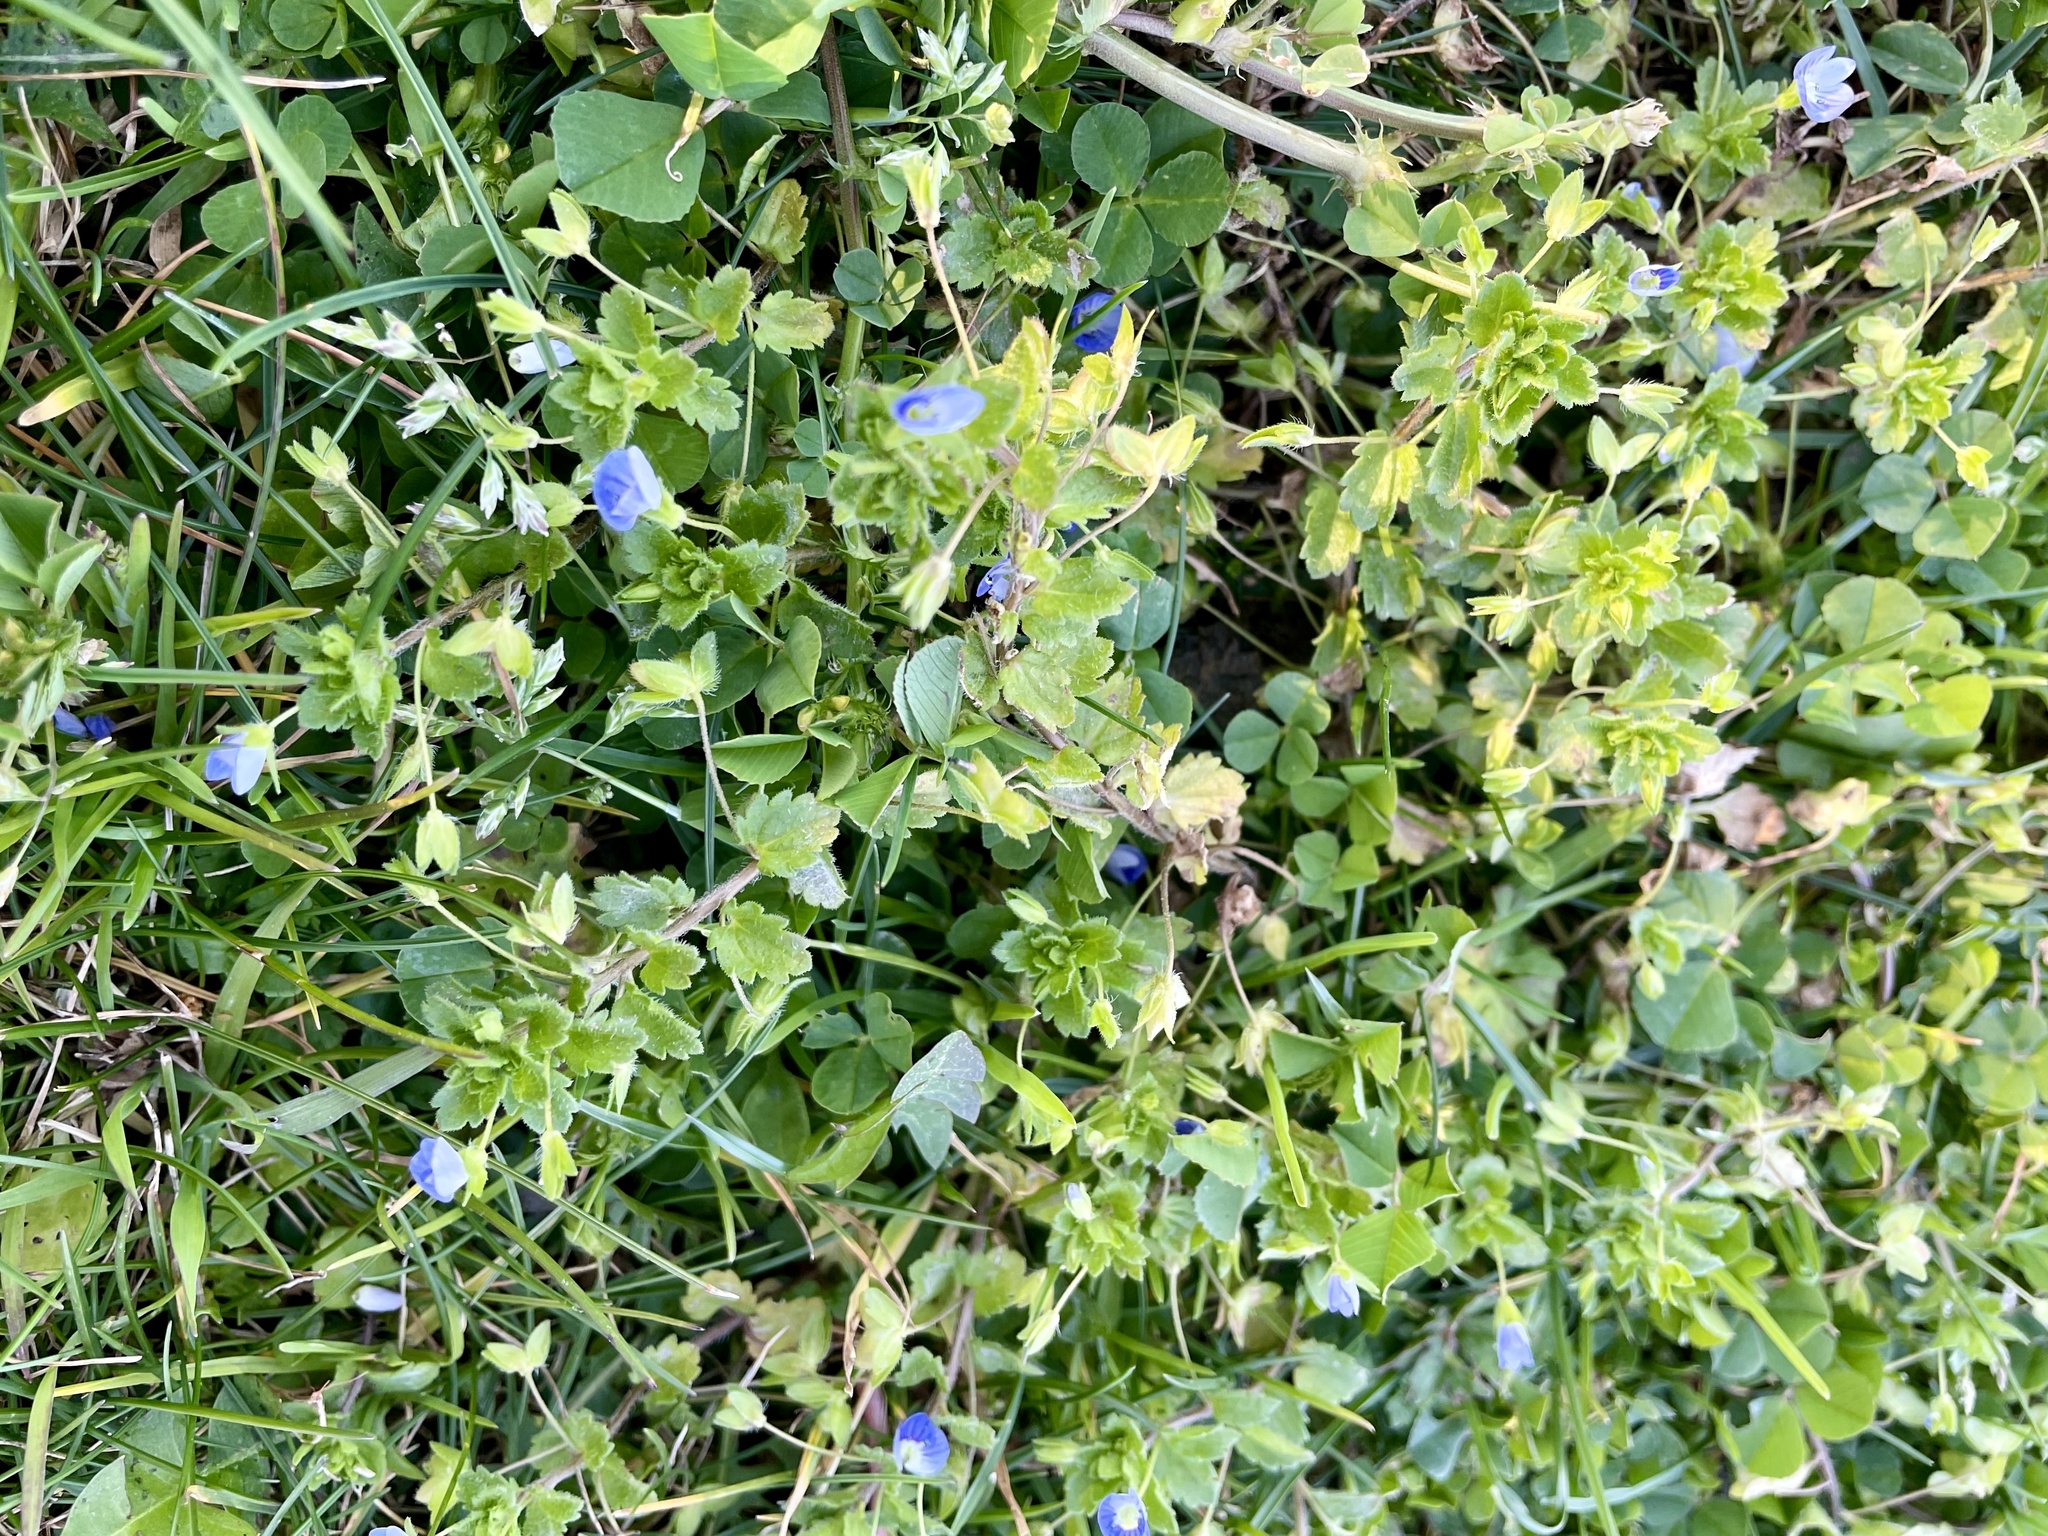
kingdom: Plantae
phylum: Tracheophyta
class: Magnoliopsida
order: Lamiales
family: Plantaginaceae
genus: Veronica
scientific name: Veronica persica
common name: Common field-speedwell
